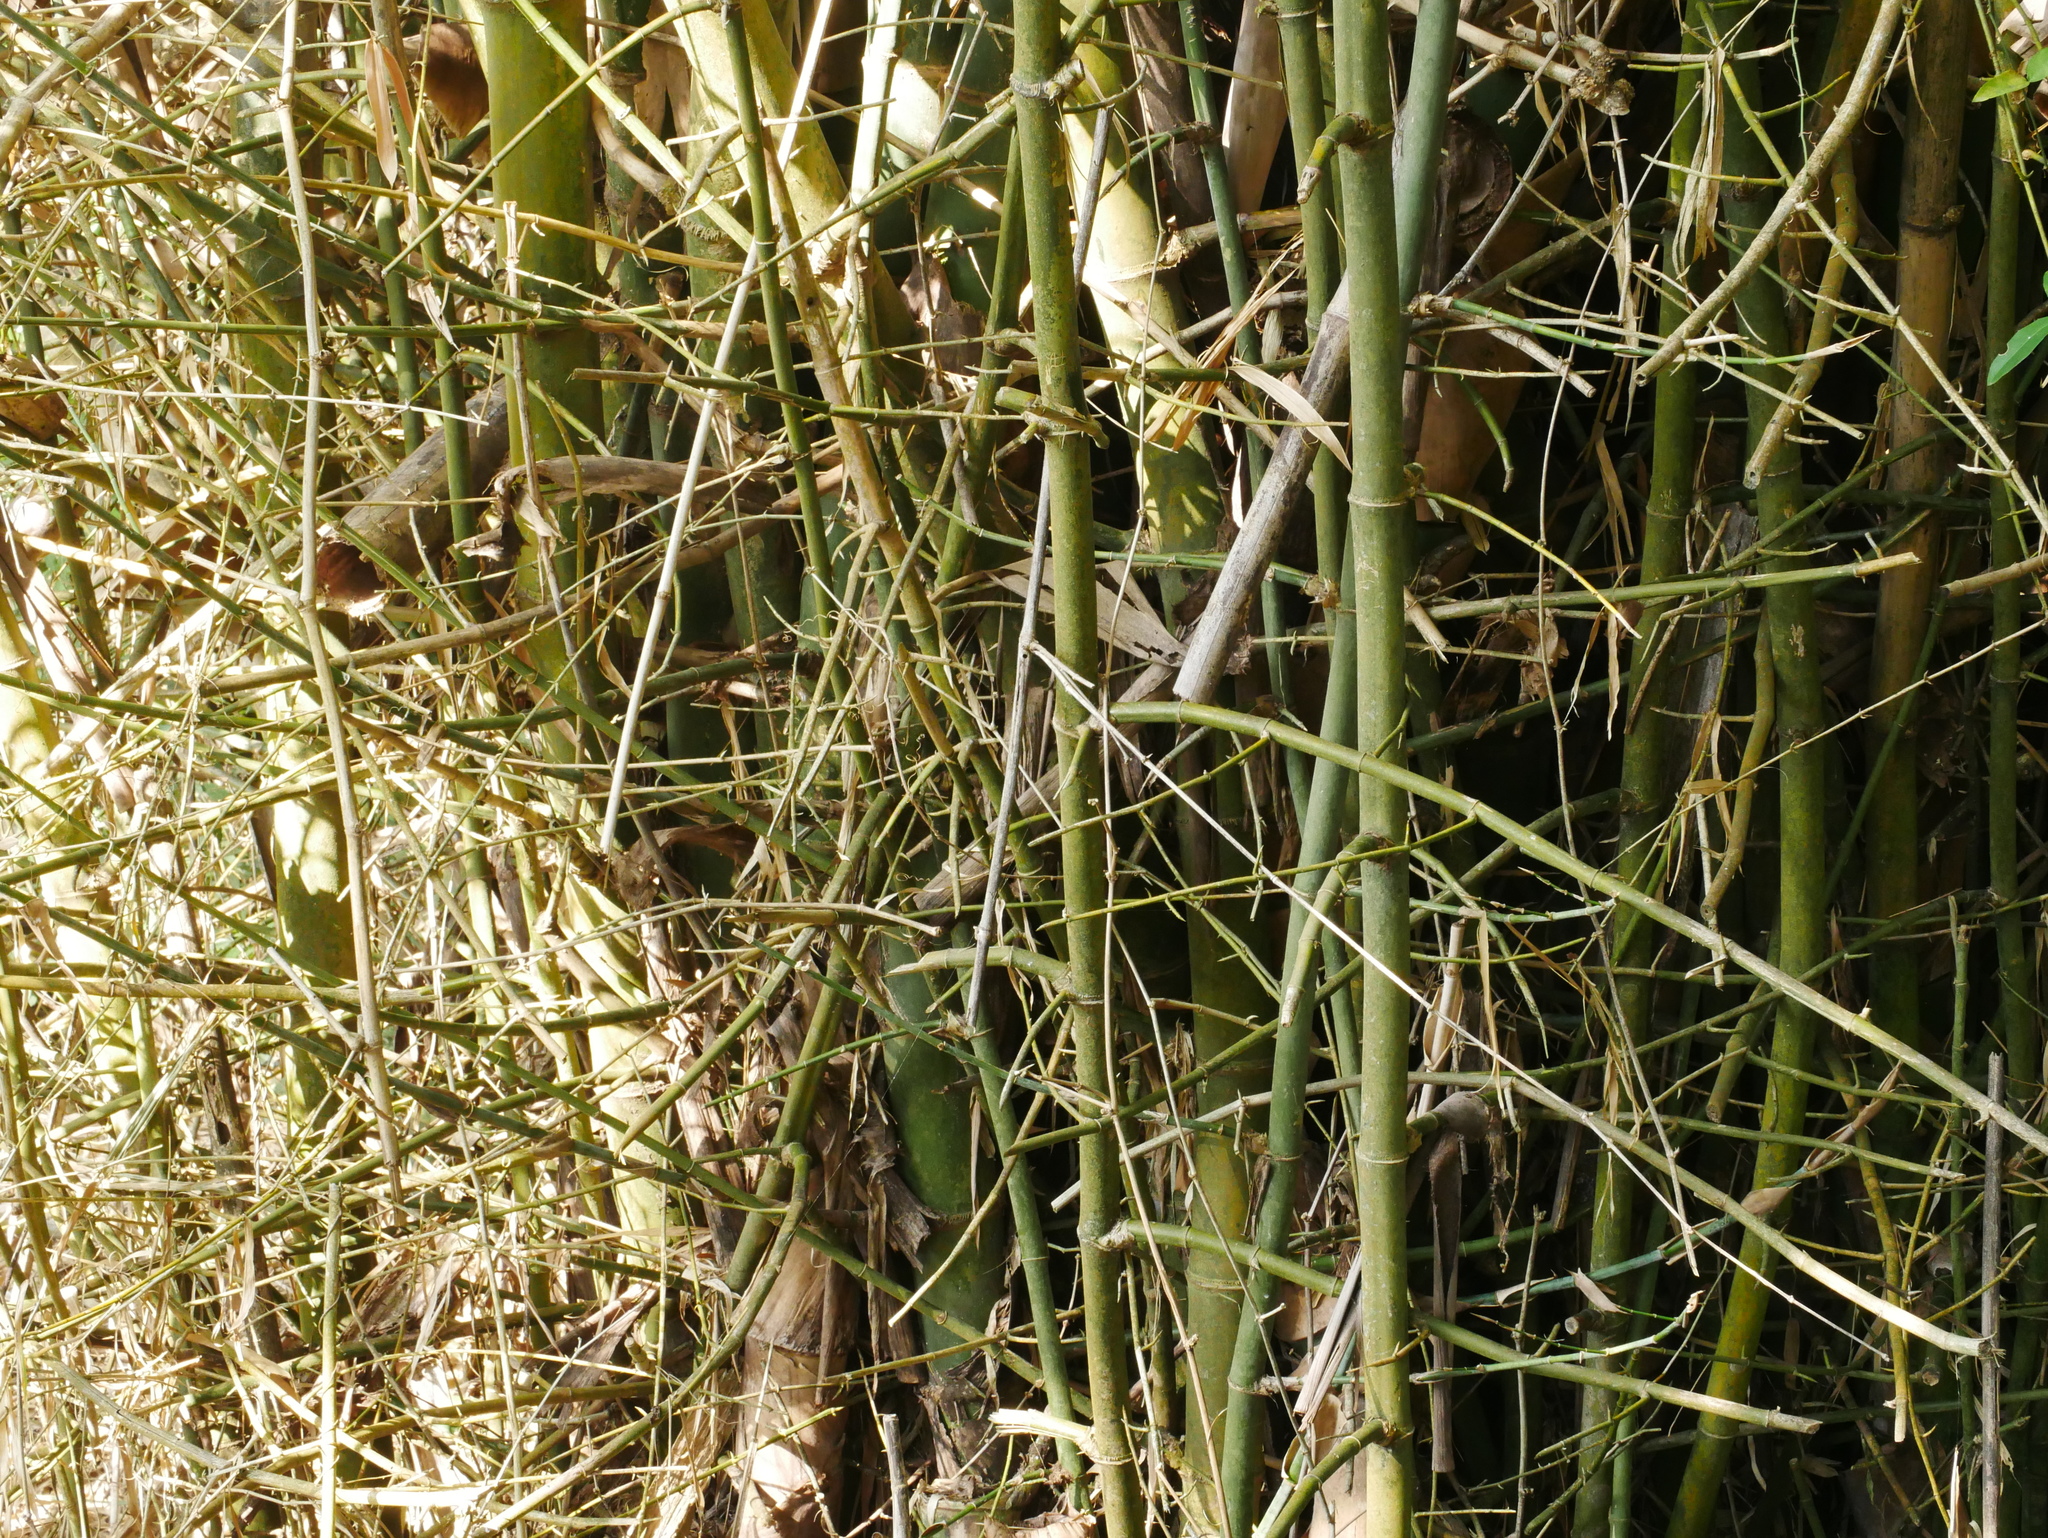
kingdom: Plantae
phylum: Tracheophyta
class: Liliopsida
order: Poales
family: Poaceae
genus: Bambusa
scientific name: Bambusa spinosa
